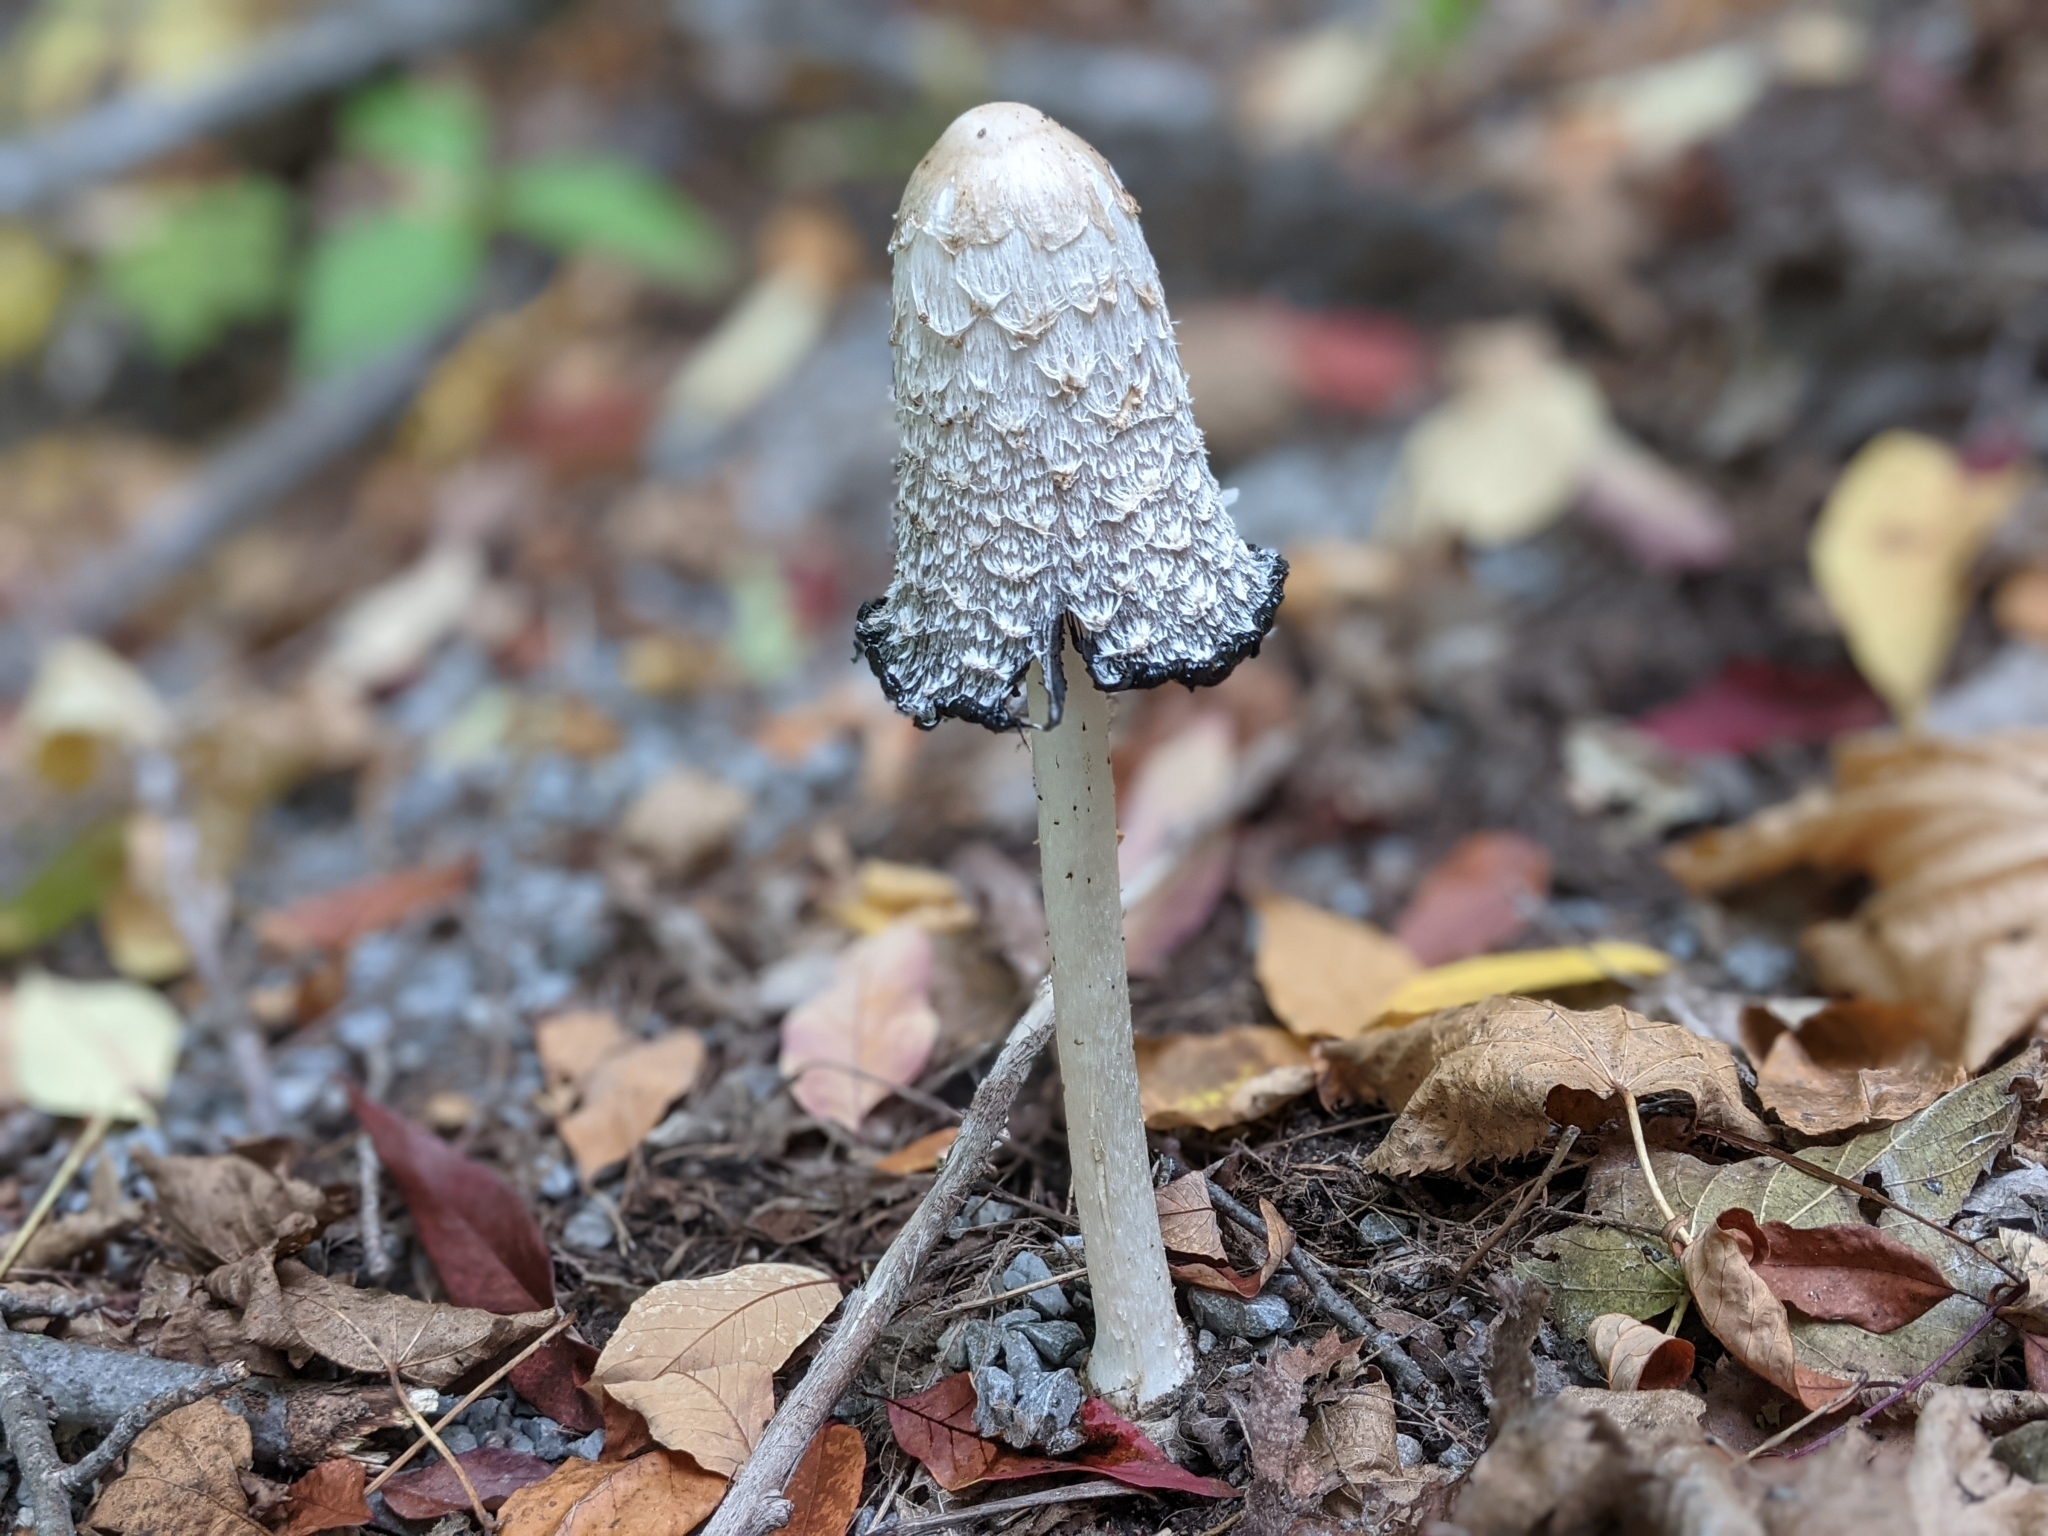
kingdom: Fungi
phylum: Basidiomycota
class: Agaricomycetes
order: Agaricales
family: Agaricaceae
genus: Coprinus
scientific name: Coprinus comatus
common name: Lawyer's wig
